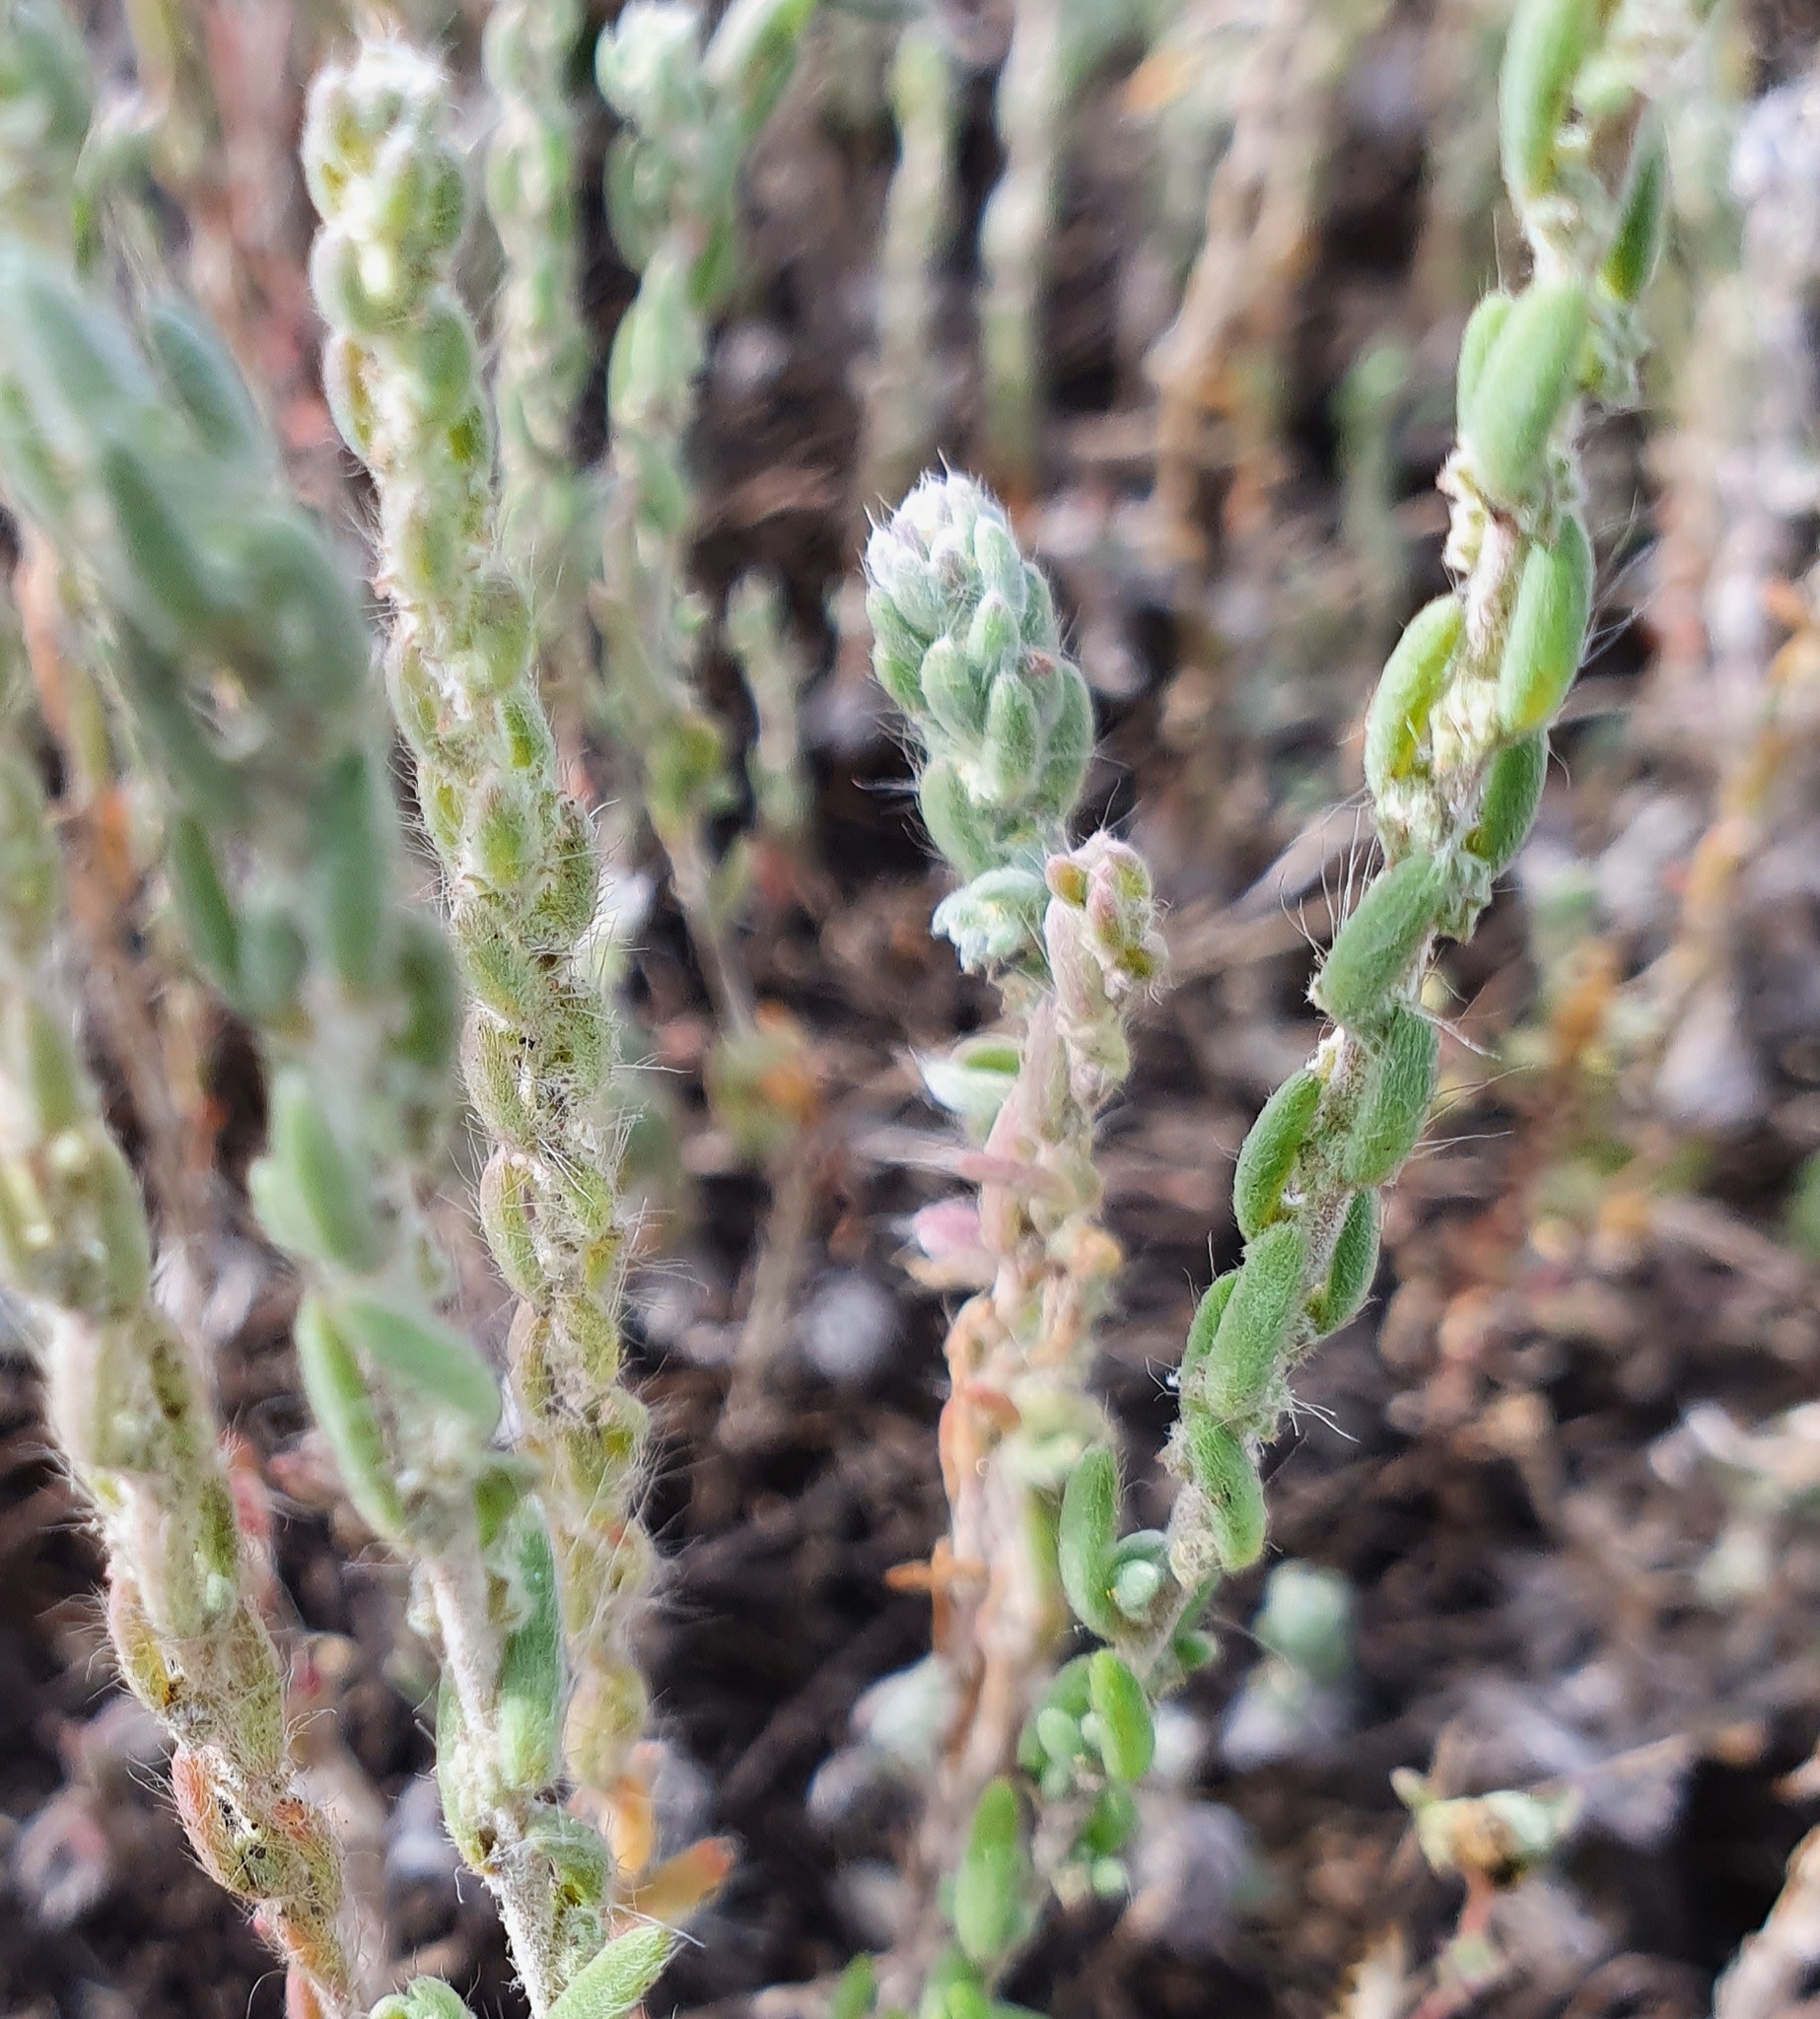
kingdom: Plantae
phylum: Tracheophyta
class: Magnoliopsida
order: Caryophyllales
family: Amaranthaceae
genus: Sedobassia
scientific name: Sedobassia sedoides
